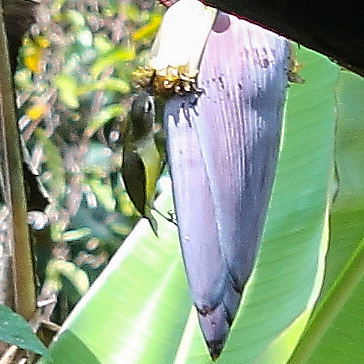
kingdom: Animalia
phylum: Chordata
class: Aves
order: Passeriformes
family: Nectariniidae
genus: Arachnothera
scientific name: Arachnothera longirostra
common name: Little spiderhunter
